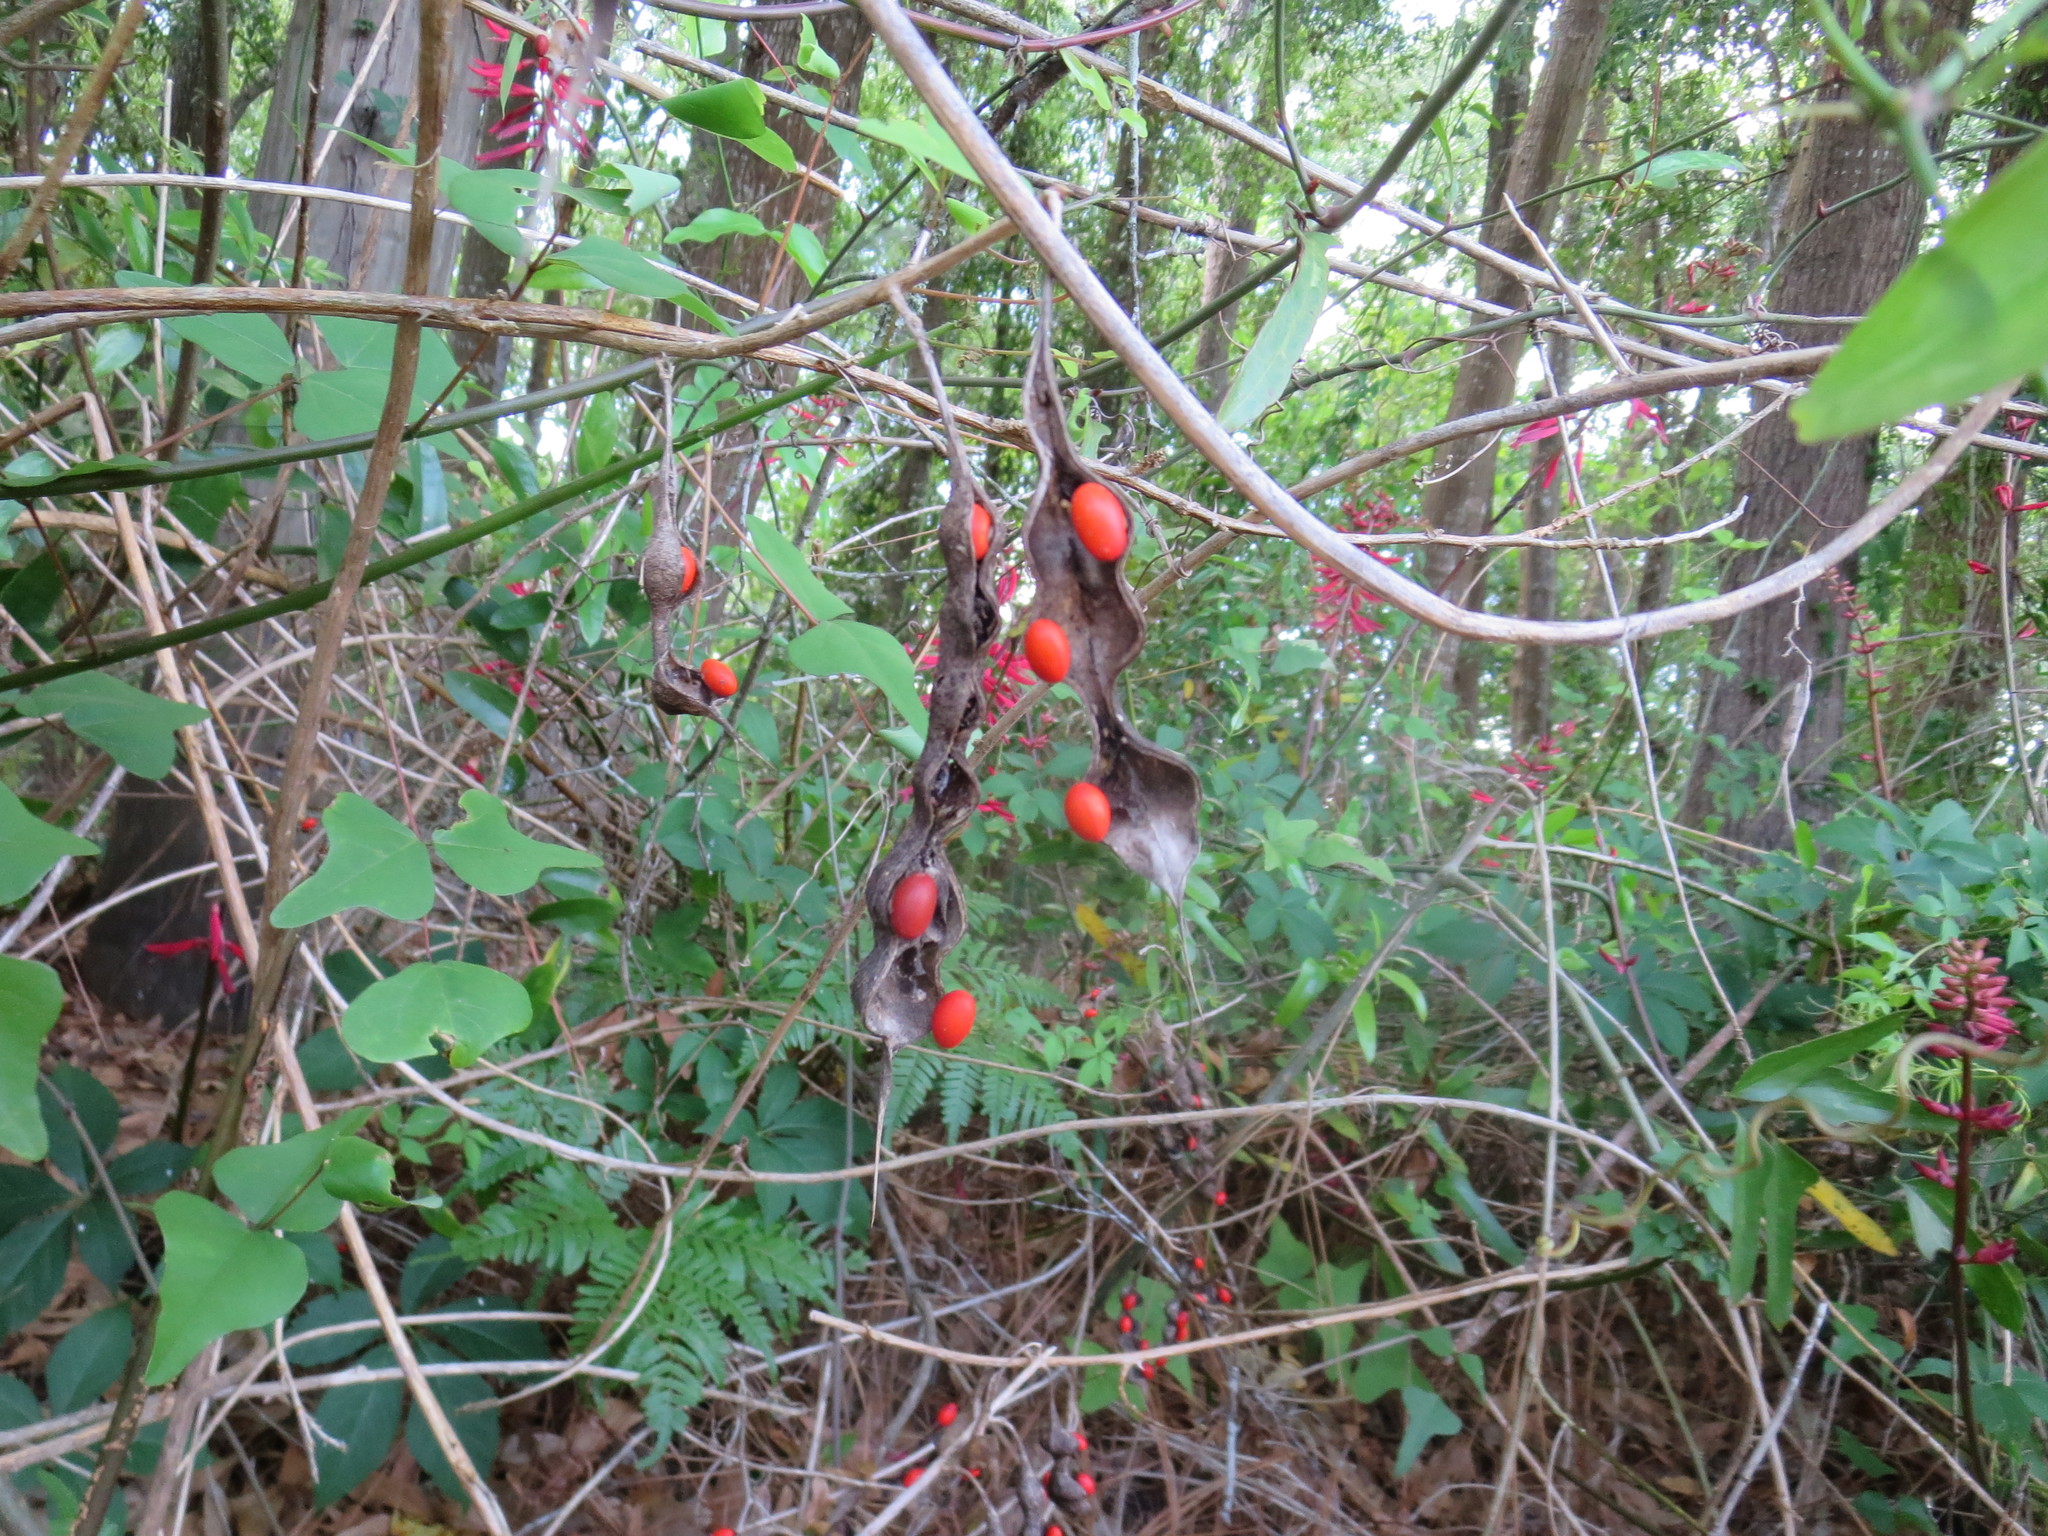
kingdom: Plantae
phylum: Tracheophyta
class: Magnoliopsida
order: Fabales
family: Fabaceae
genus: Erythrina
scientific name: Erythrina herbacea
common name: Coral-bean
